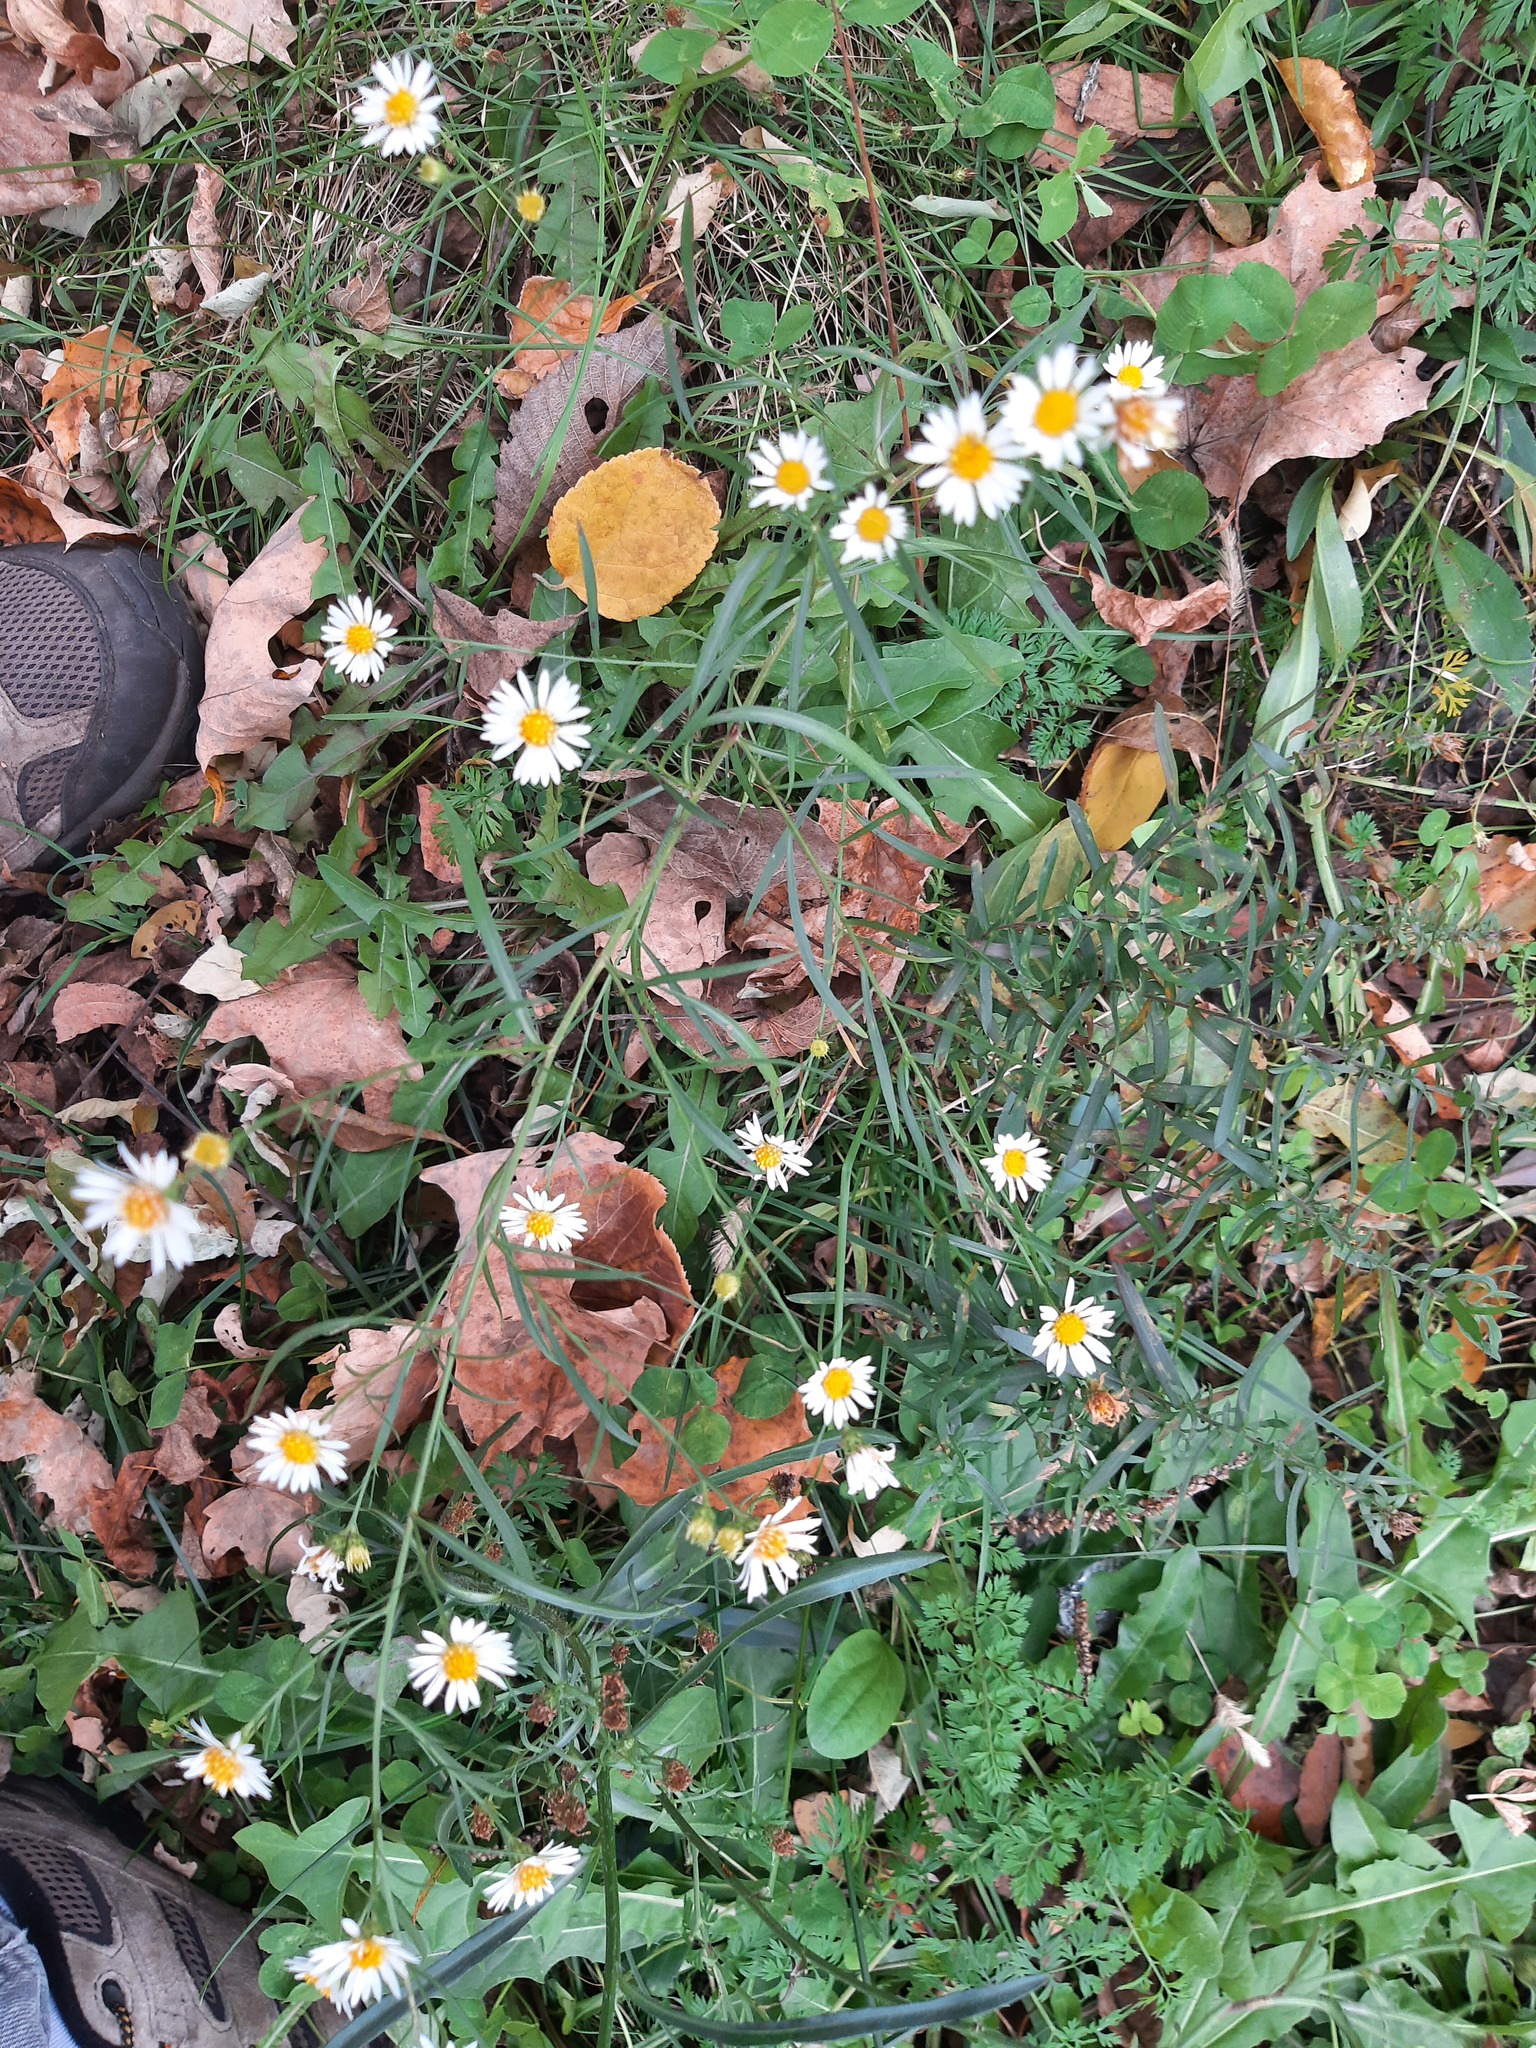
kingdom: Plantae
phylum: Tracheophyta
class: Magnoliopsida
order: Asterales
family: Asteraceae
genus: Symphyotrichum
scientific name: Symphyotrichum lanceolatum
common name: Panicled aster
